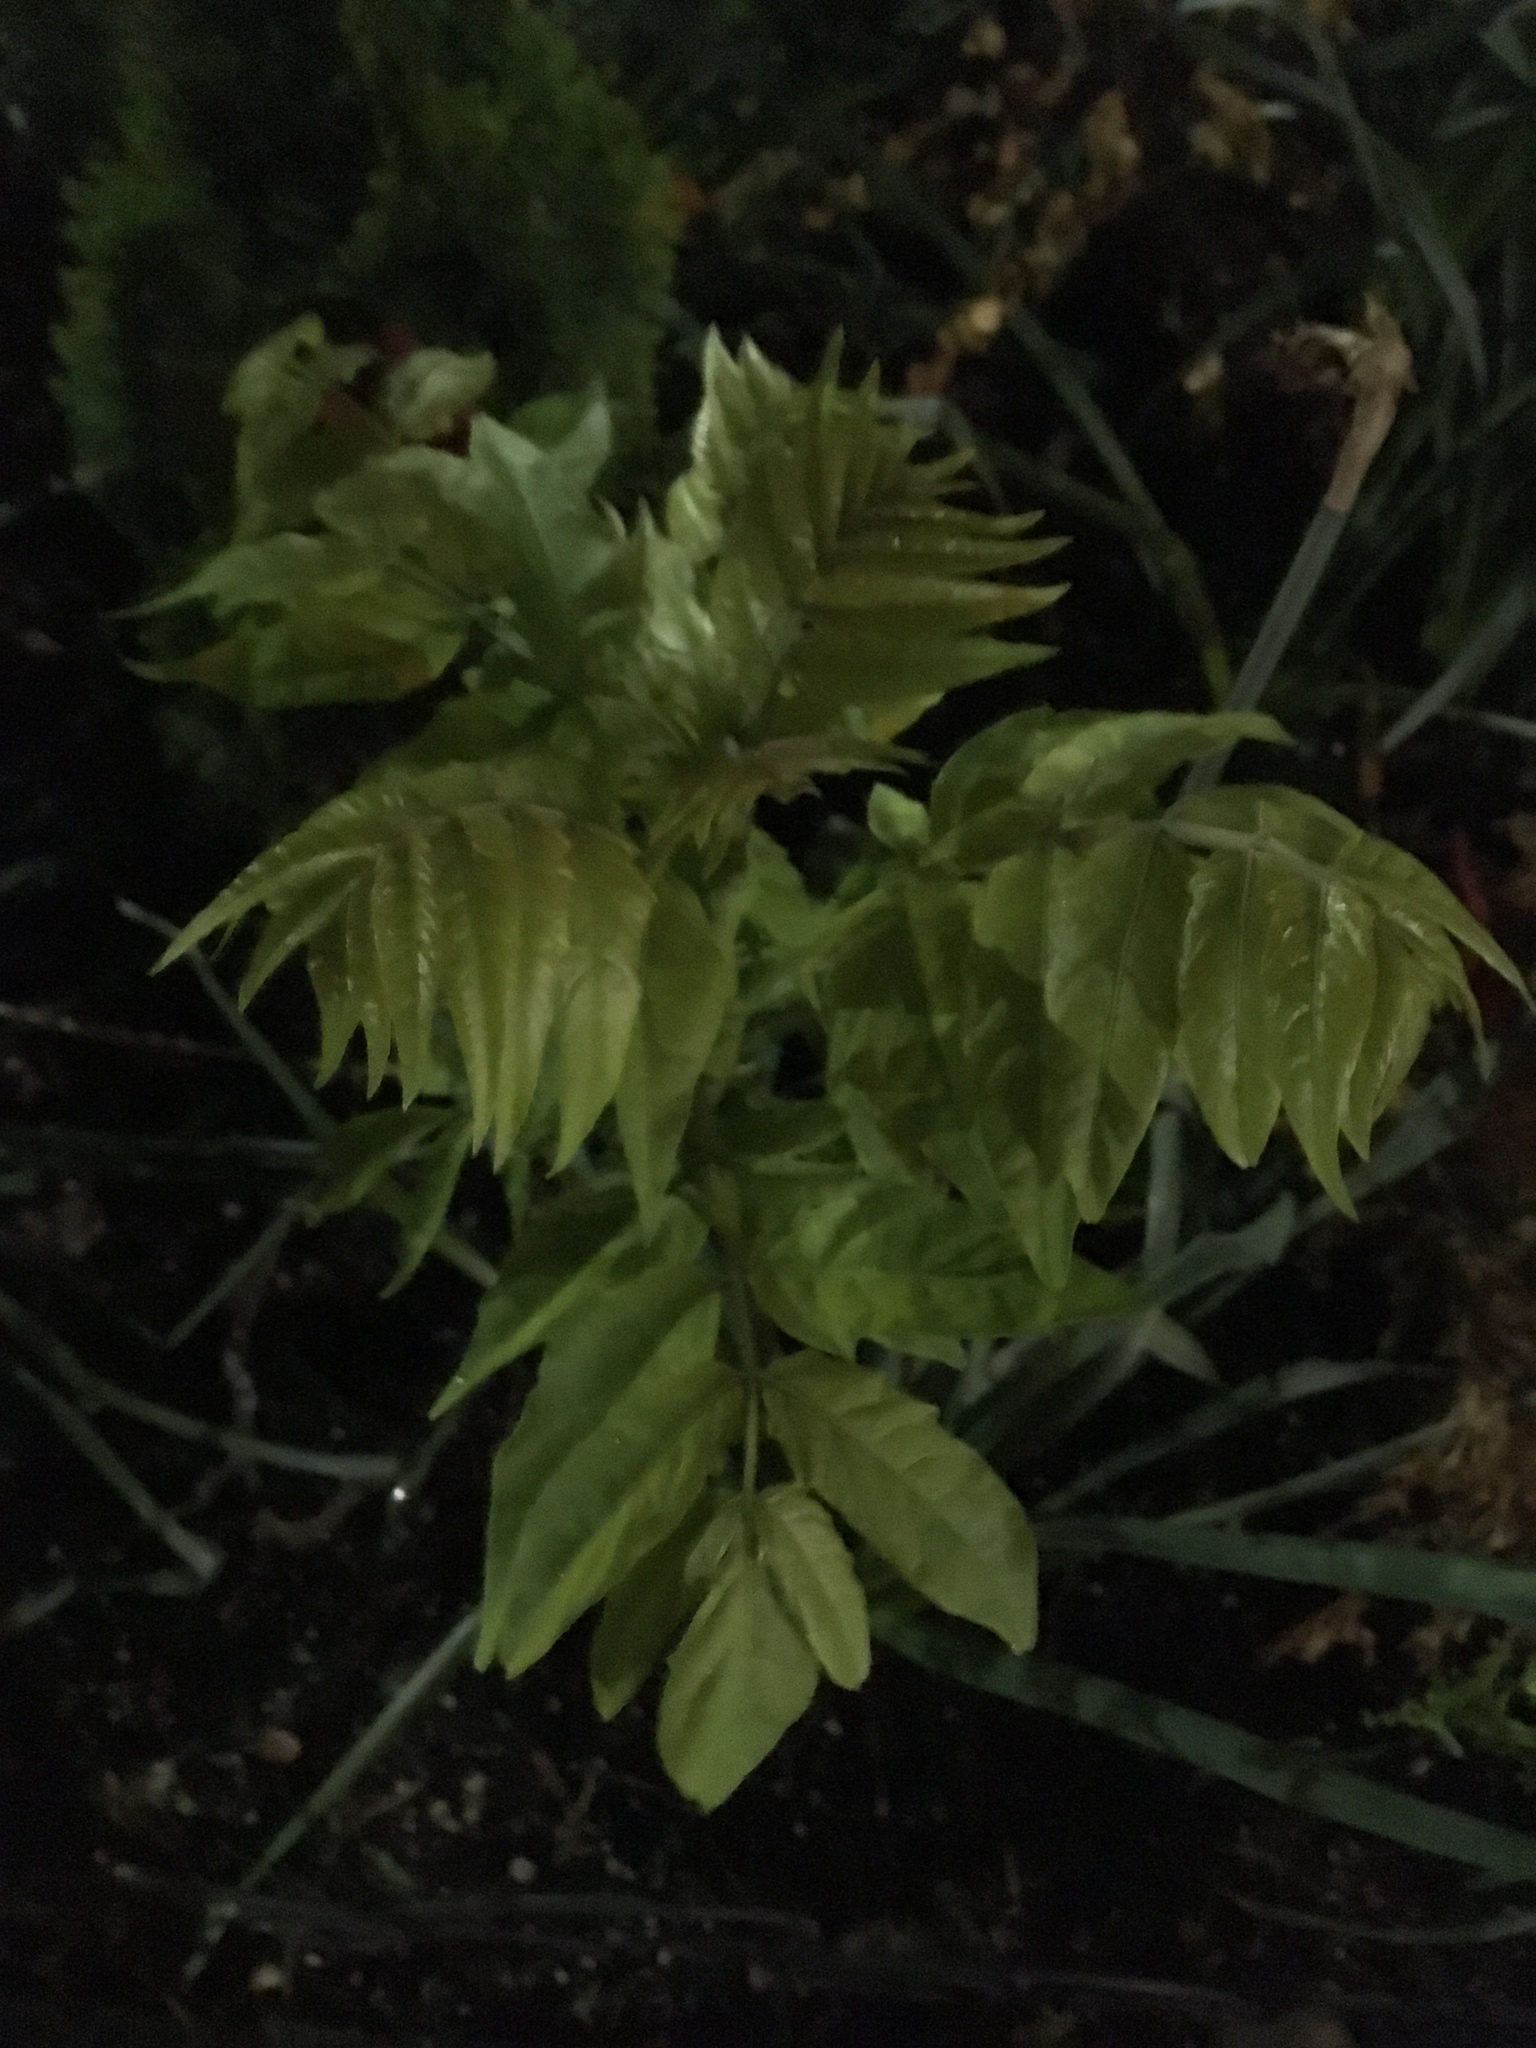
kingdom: Plantae
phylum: Tracheophyta
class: Magnoliopsida
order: Sapindales
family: Simaroubaceae
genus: Ailanthus
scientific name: Ailanthus altissima
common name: Tree-of-heaven
